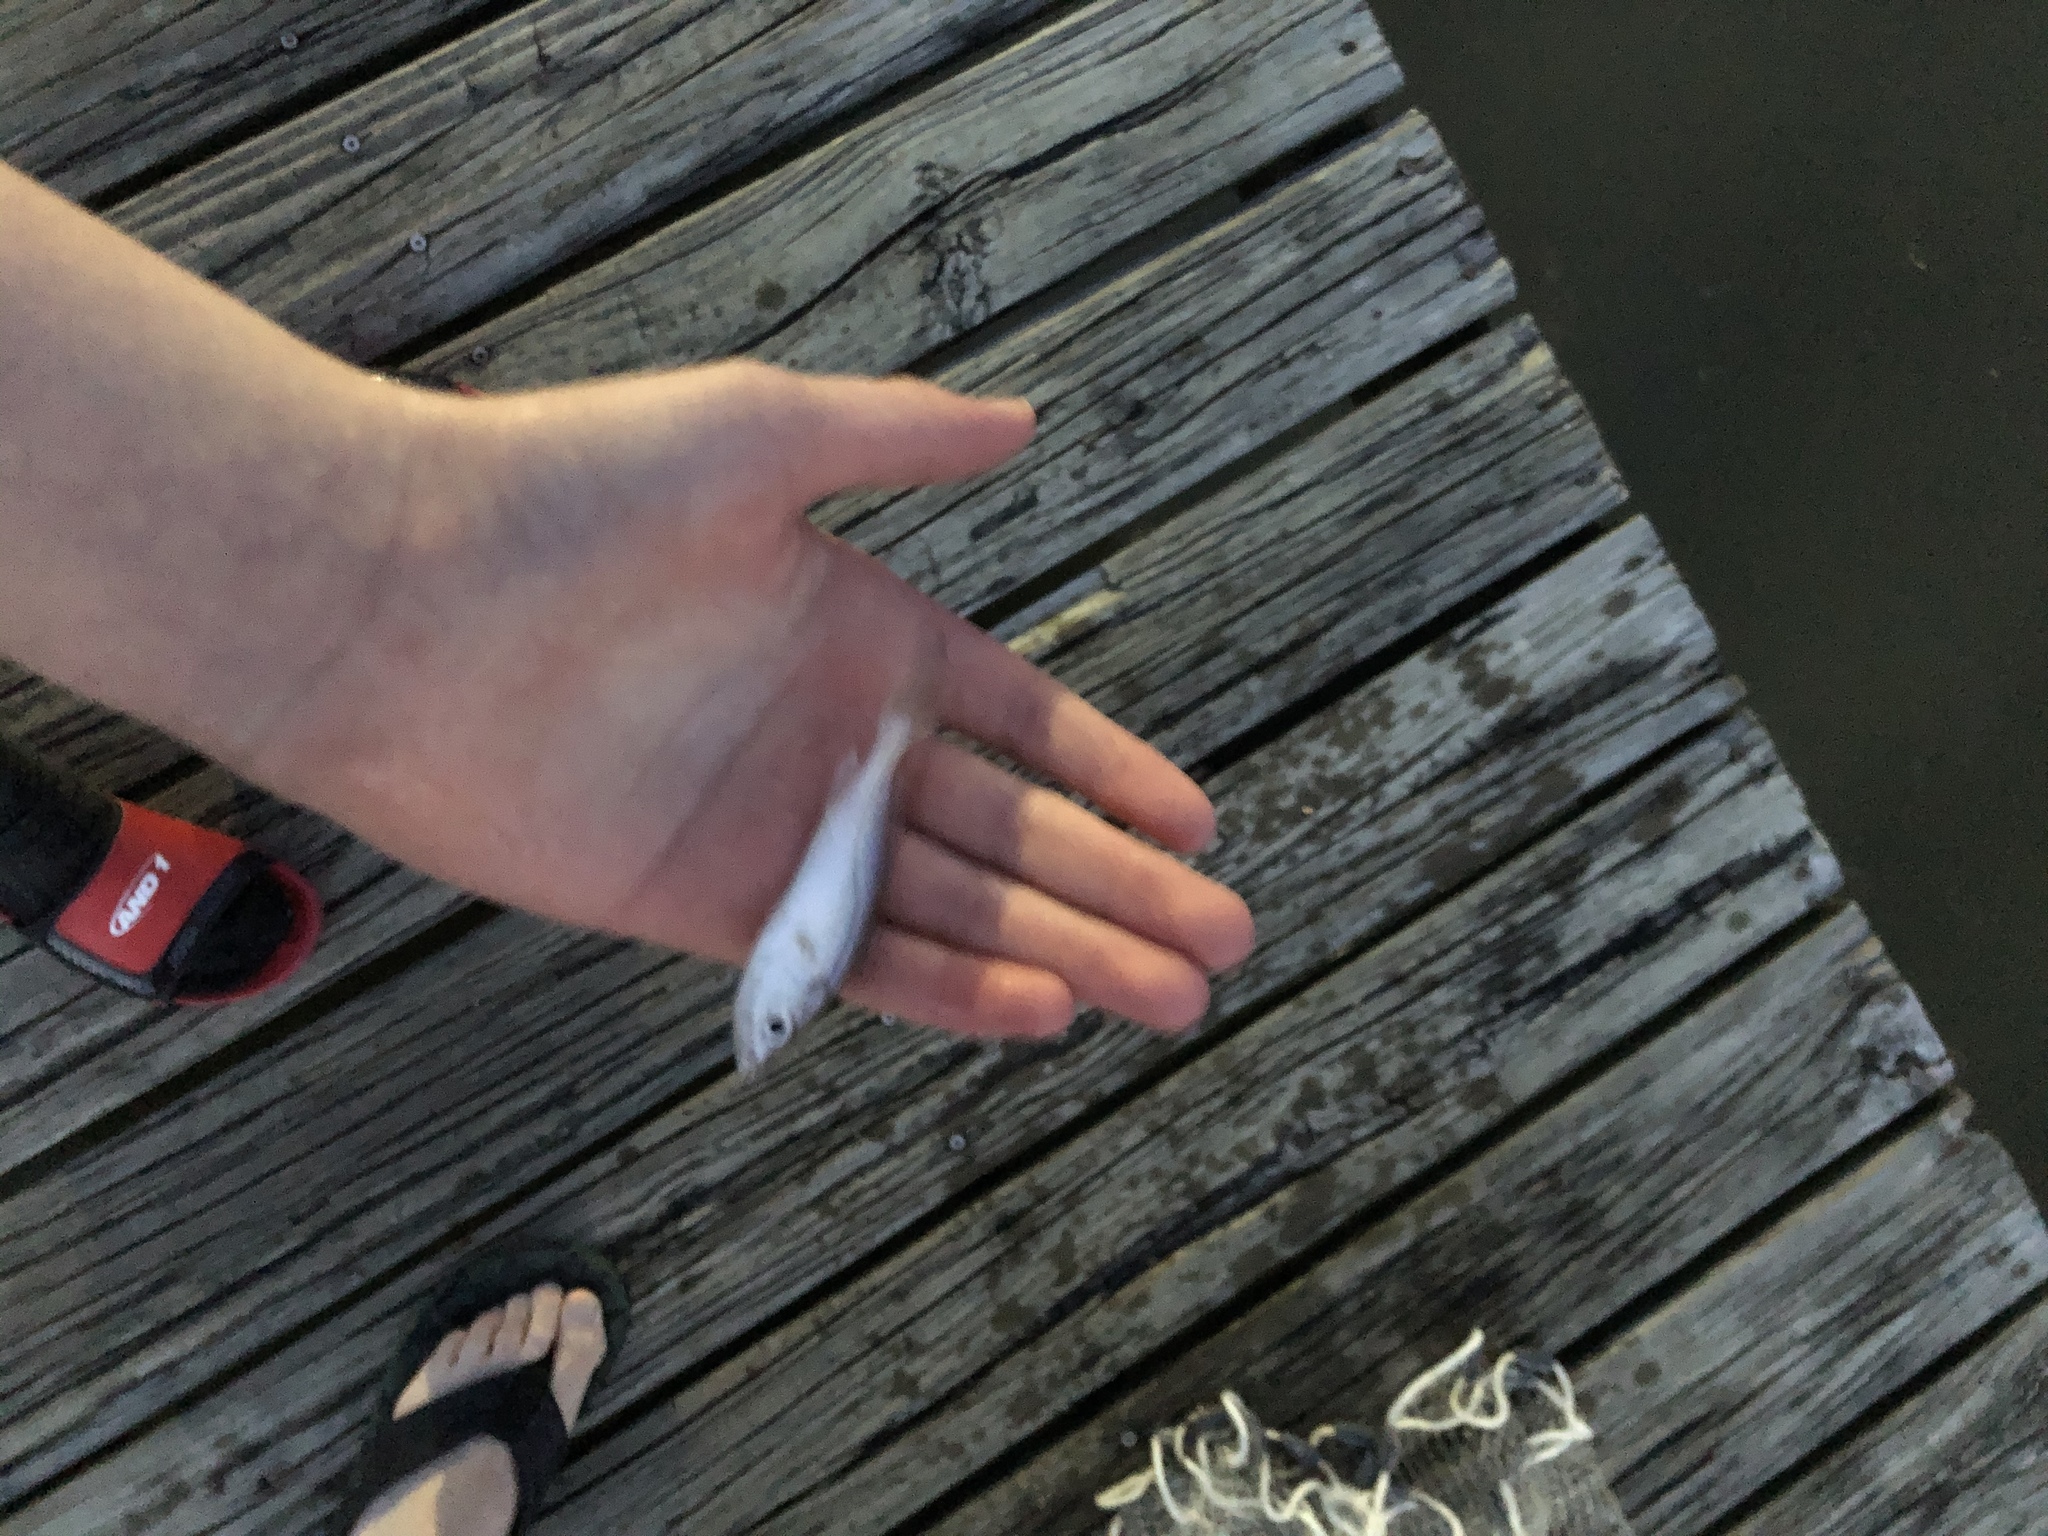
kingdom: Animalia
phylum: Chordata
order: Perciformes
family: Sciaenidae
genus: Cynoscion
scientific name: Cynoscion arenarius
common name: Sand seatrout
